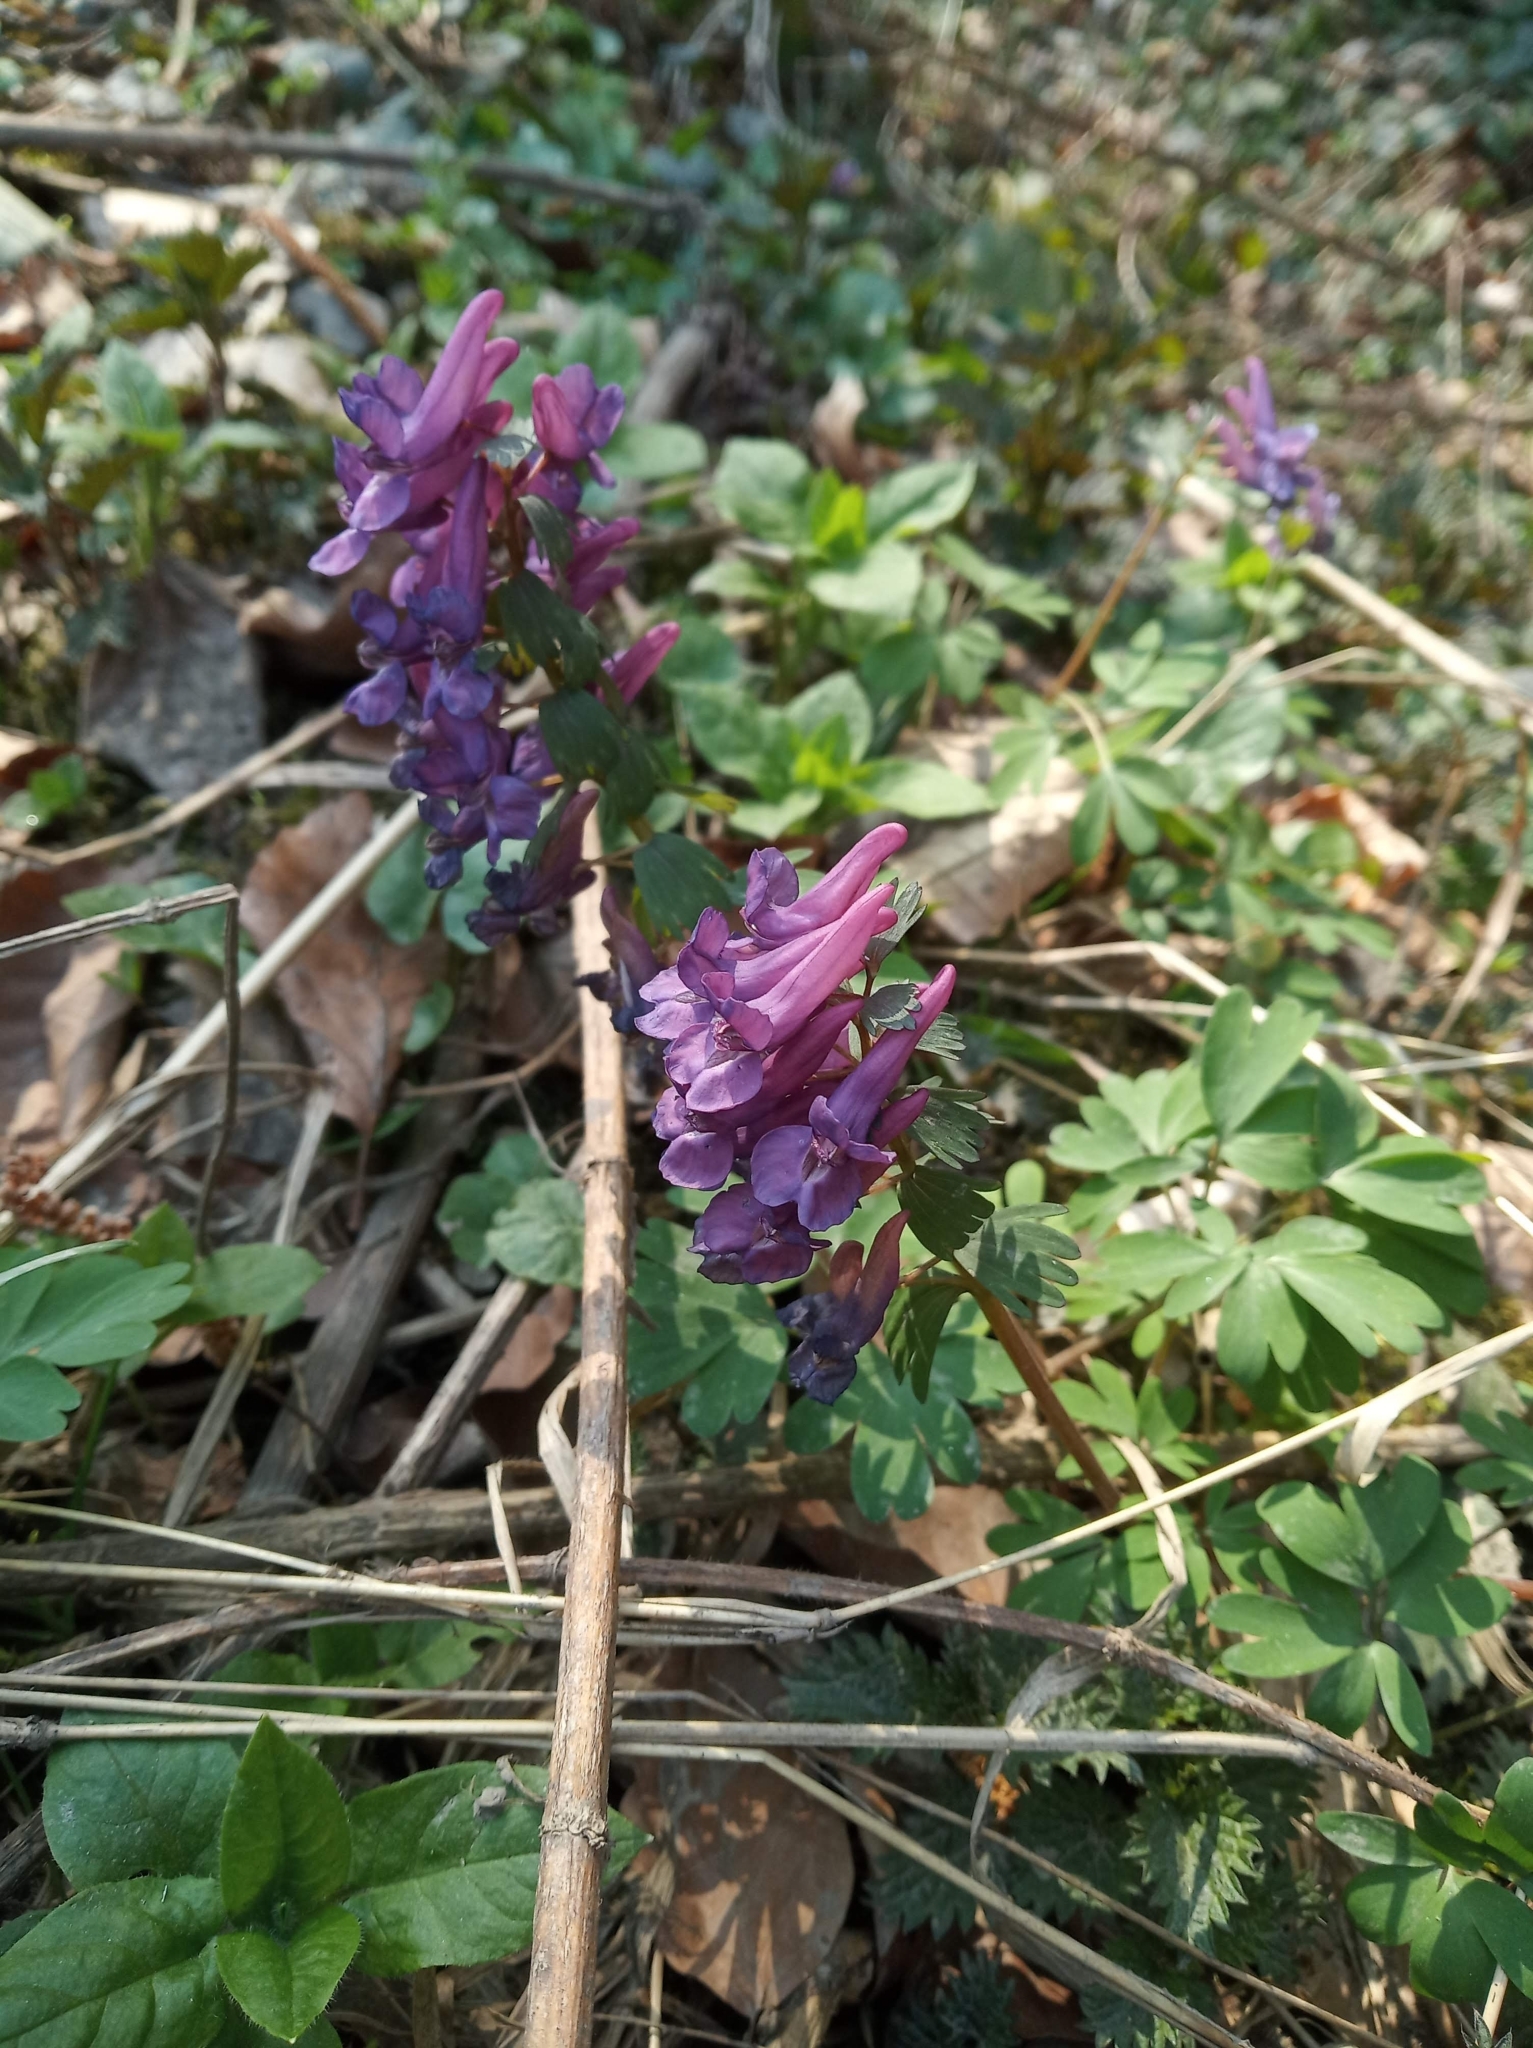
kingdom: Plantae
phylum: Tracheophyta
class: Magnoliopsida
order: Ranunculales
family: Papaveraceae
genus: Corydalis
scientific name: Corydalis solida
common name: Bird-in-a-bush
